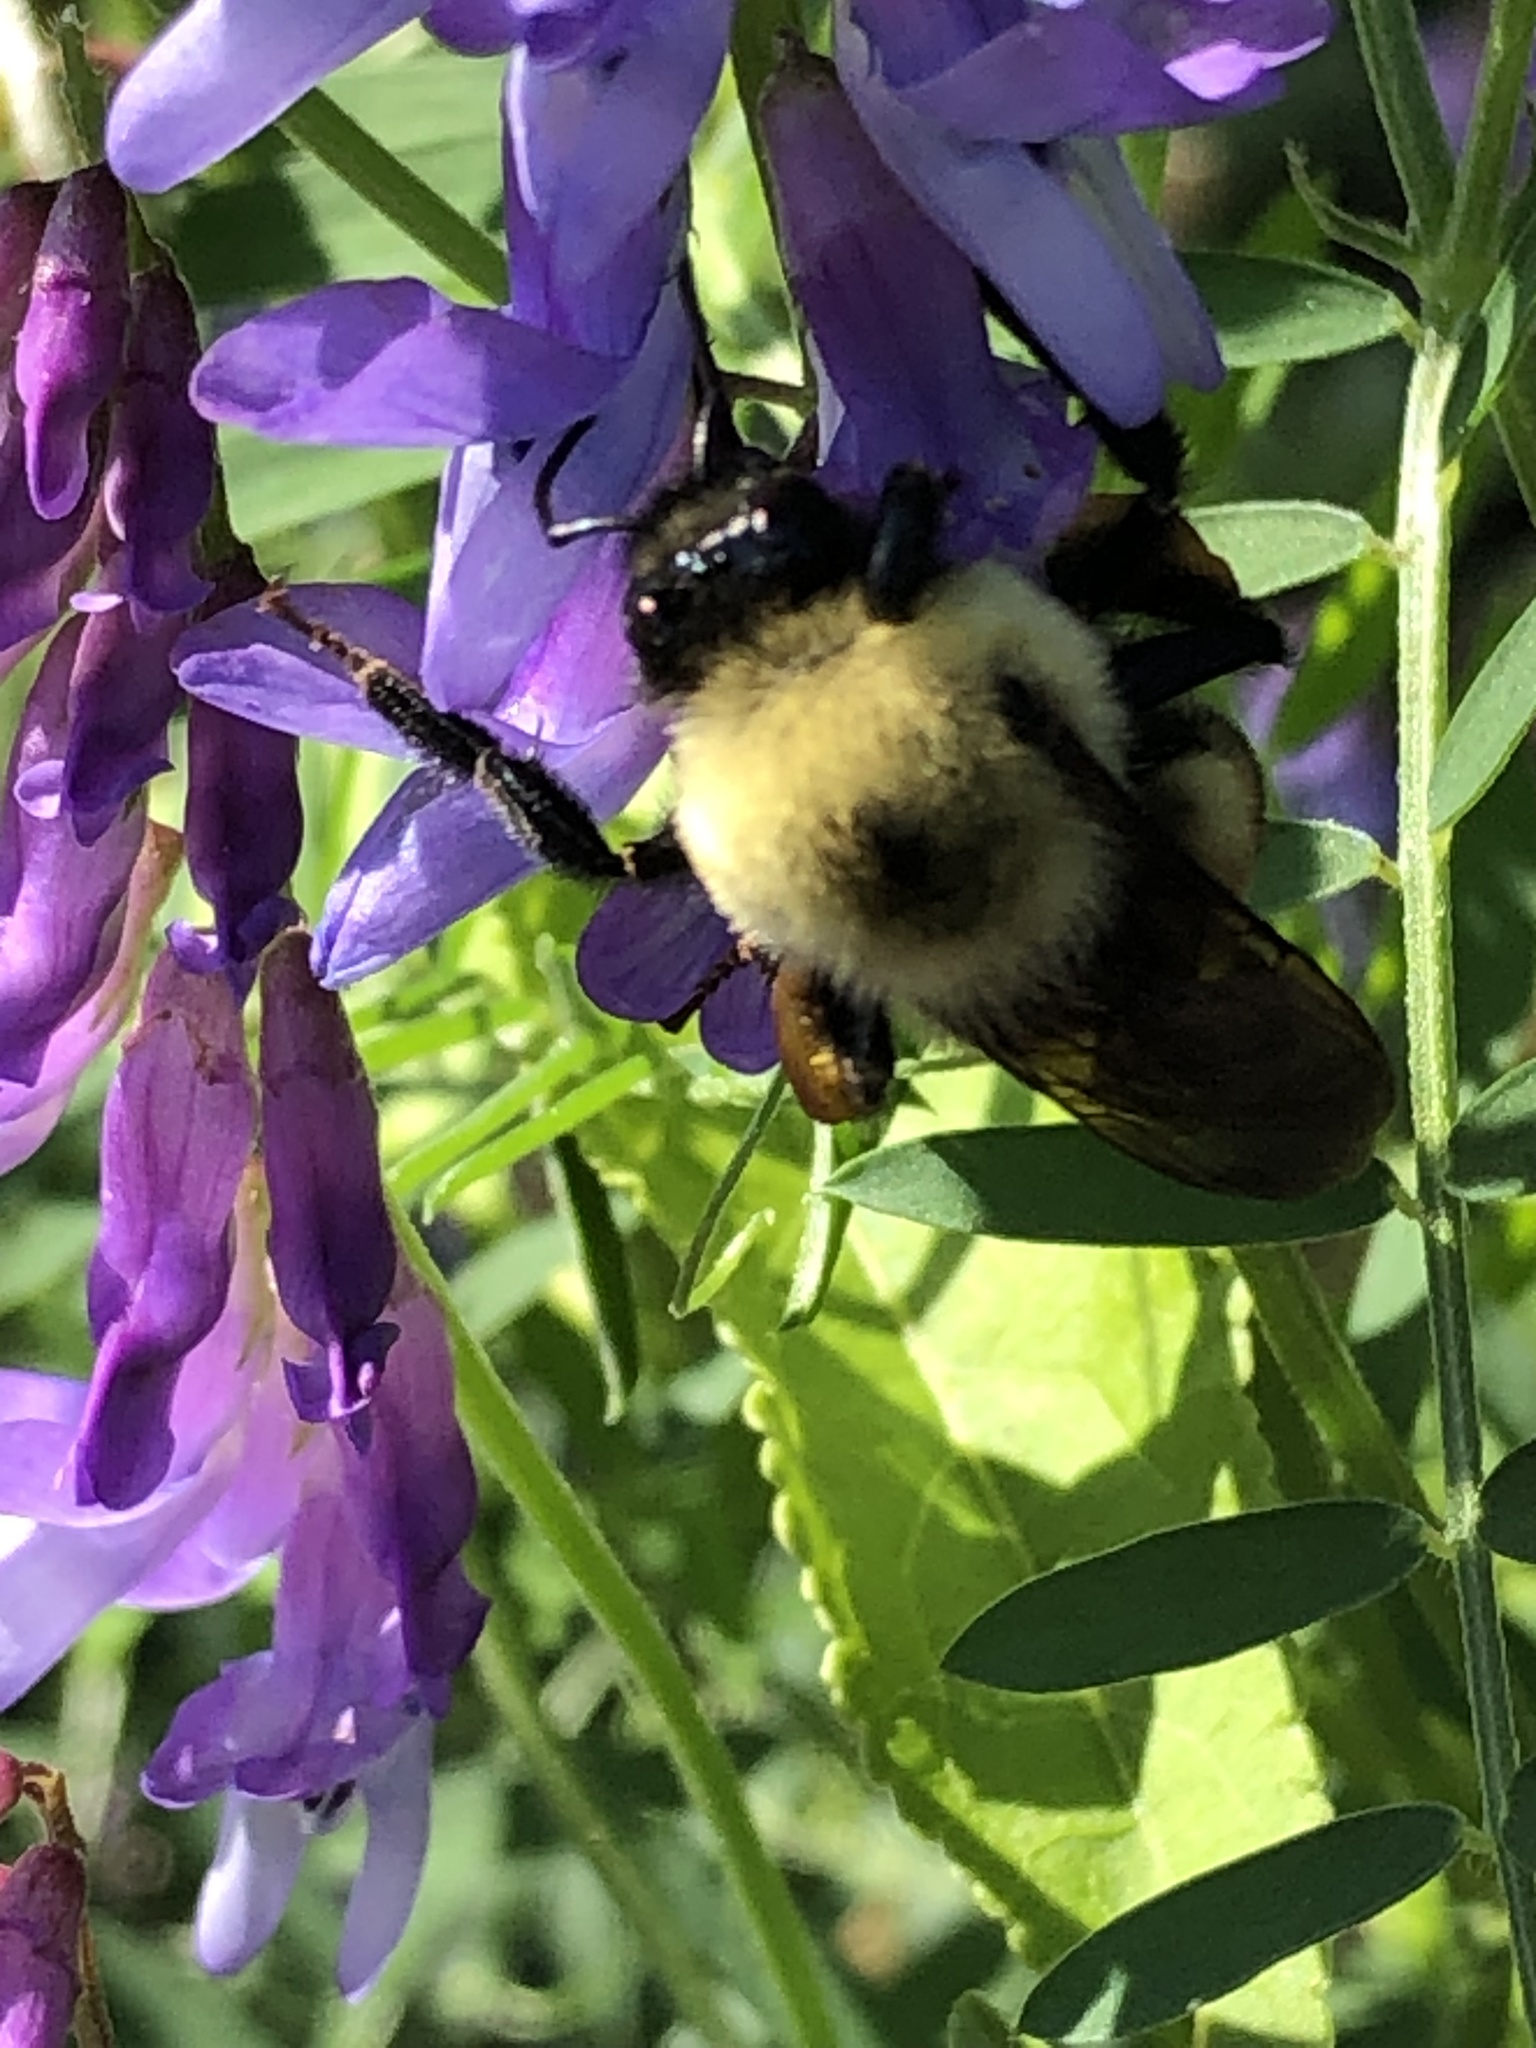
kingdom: Animalia
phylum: Arthropoda
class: Insecta
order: Hymenoptera
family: Apidae
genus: Bombus
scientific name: Bombus griseocollis
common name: Brown-belted bumble bee
